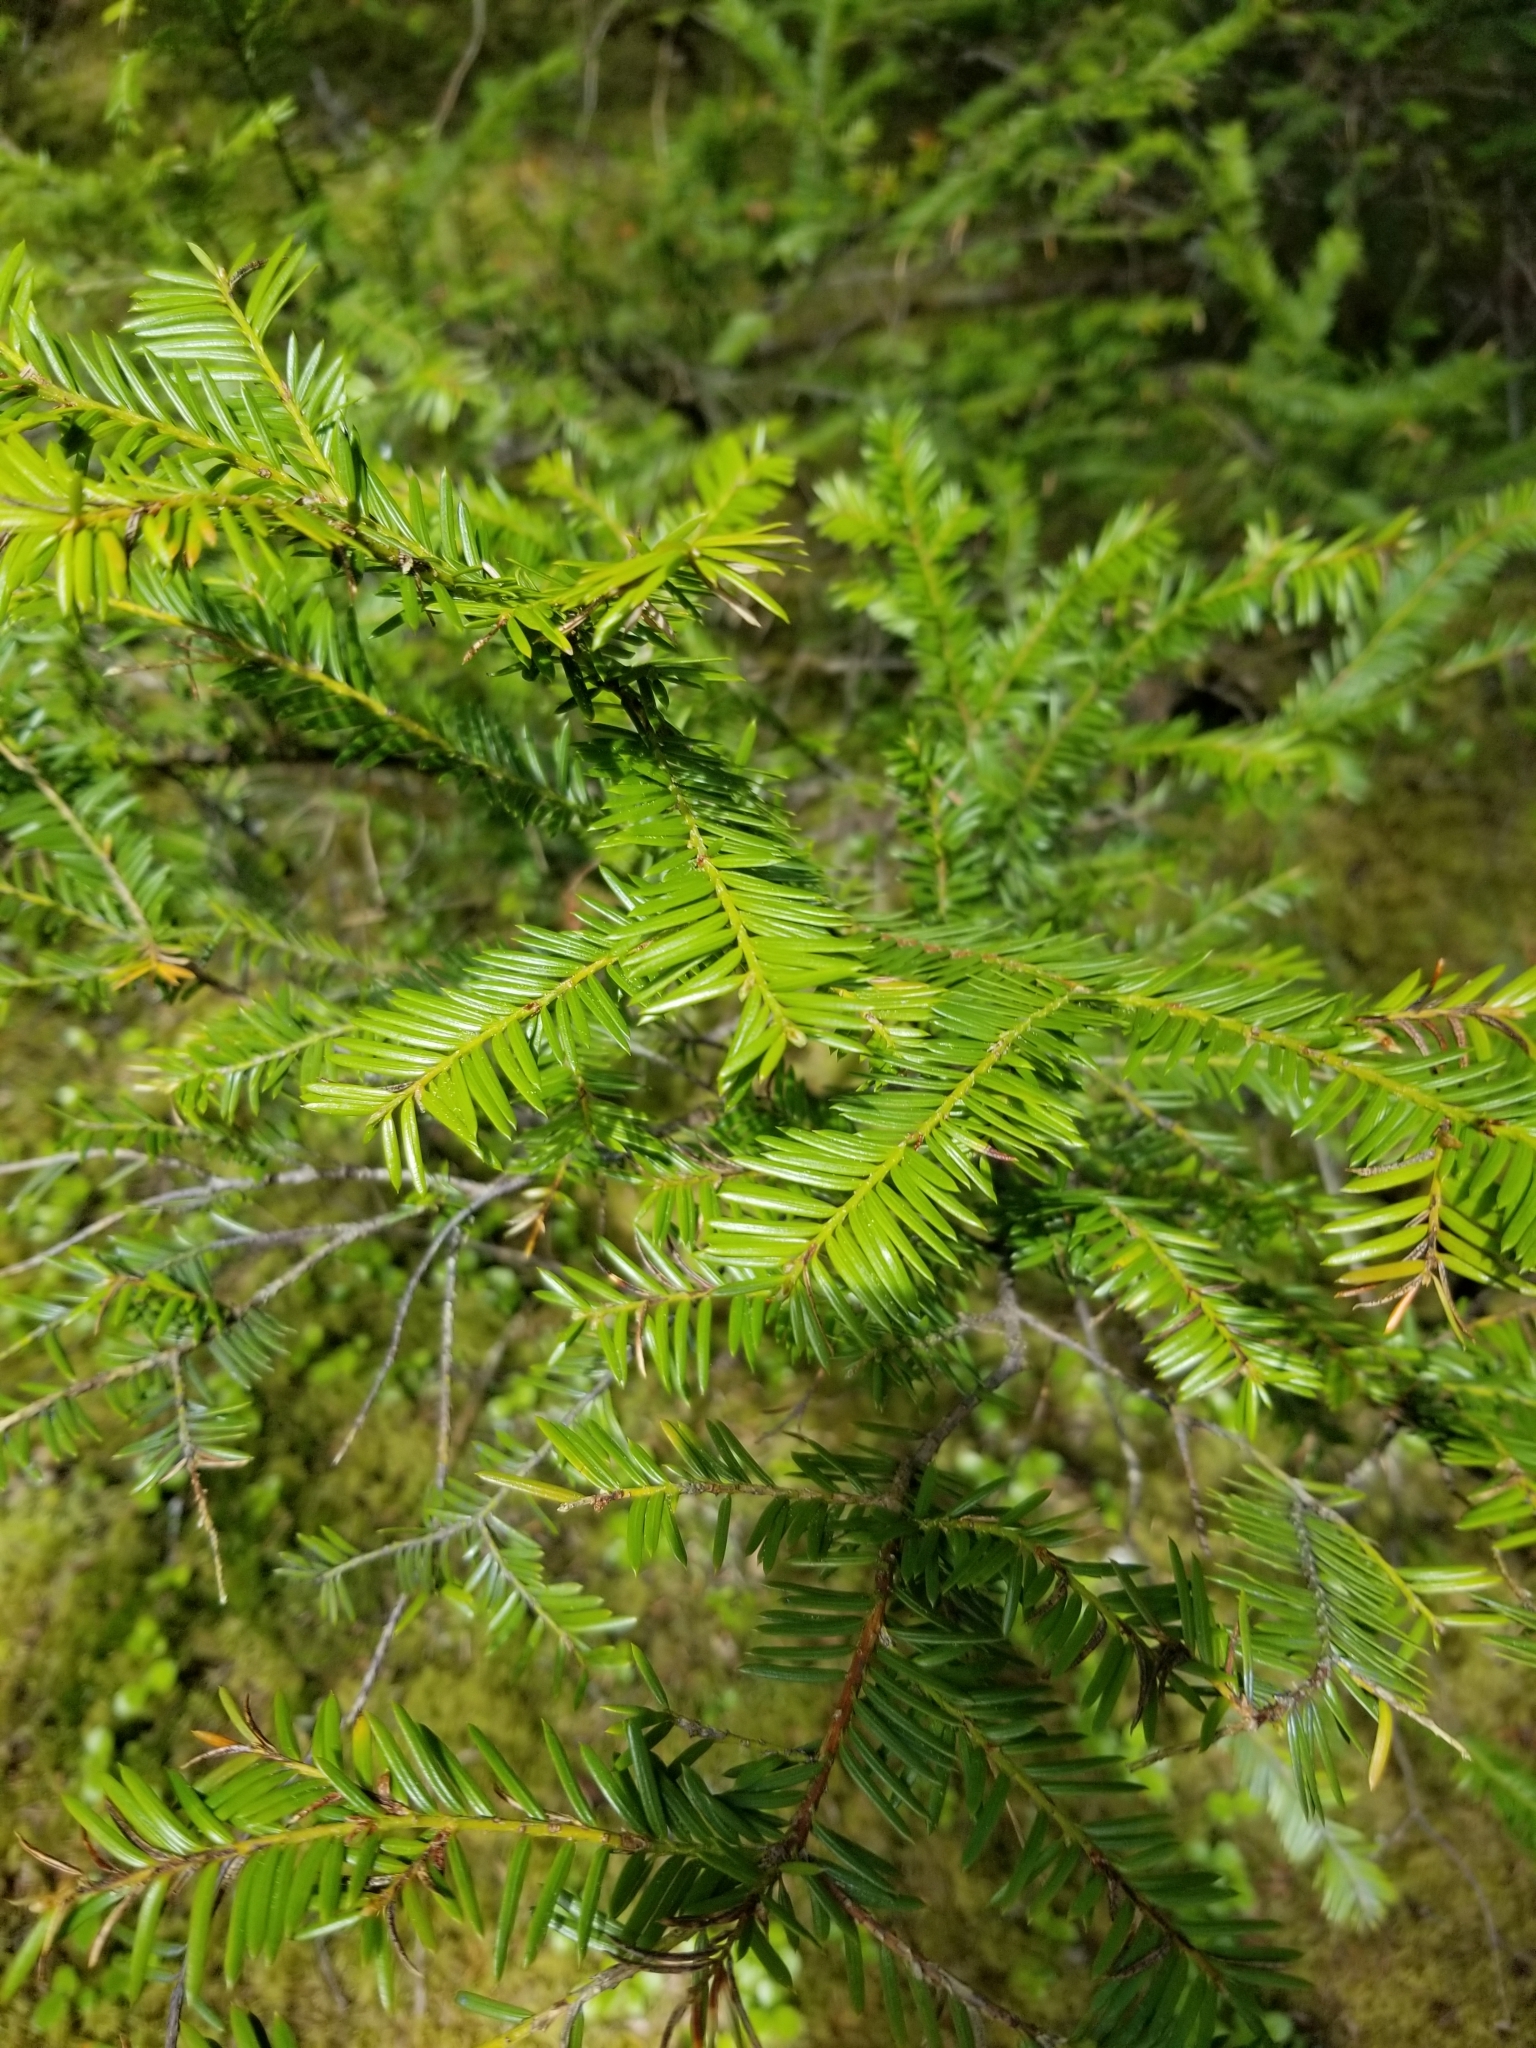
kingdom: Plantae
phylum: Tracheophyta
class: Pinopsida
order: Pinales
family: Taxaceae
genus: Taxus
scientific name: Taxus brevifolia
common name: Pacific yew
